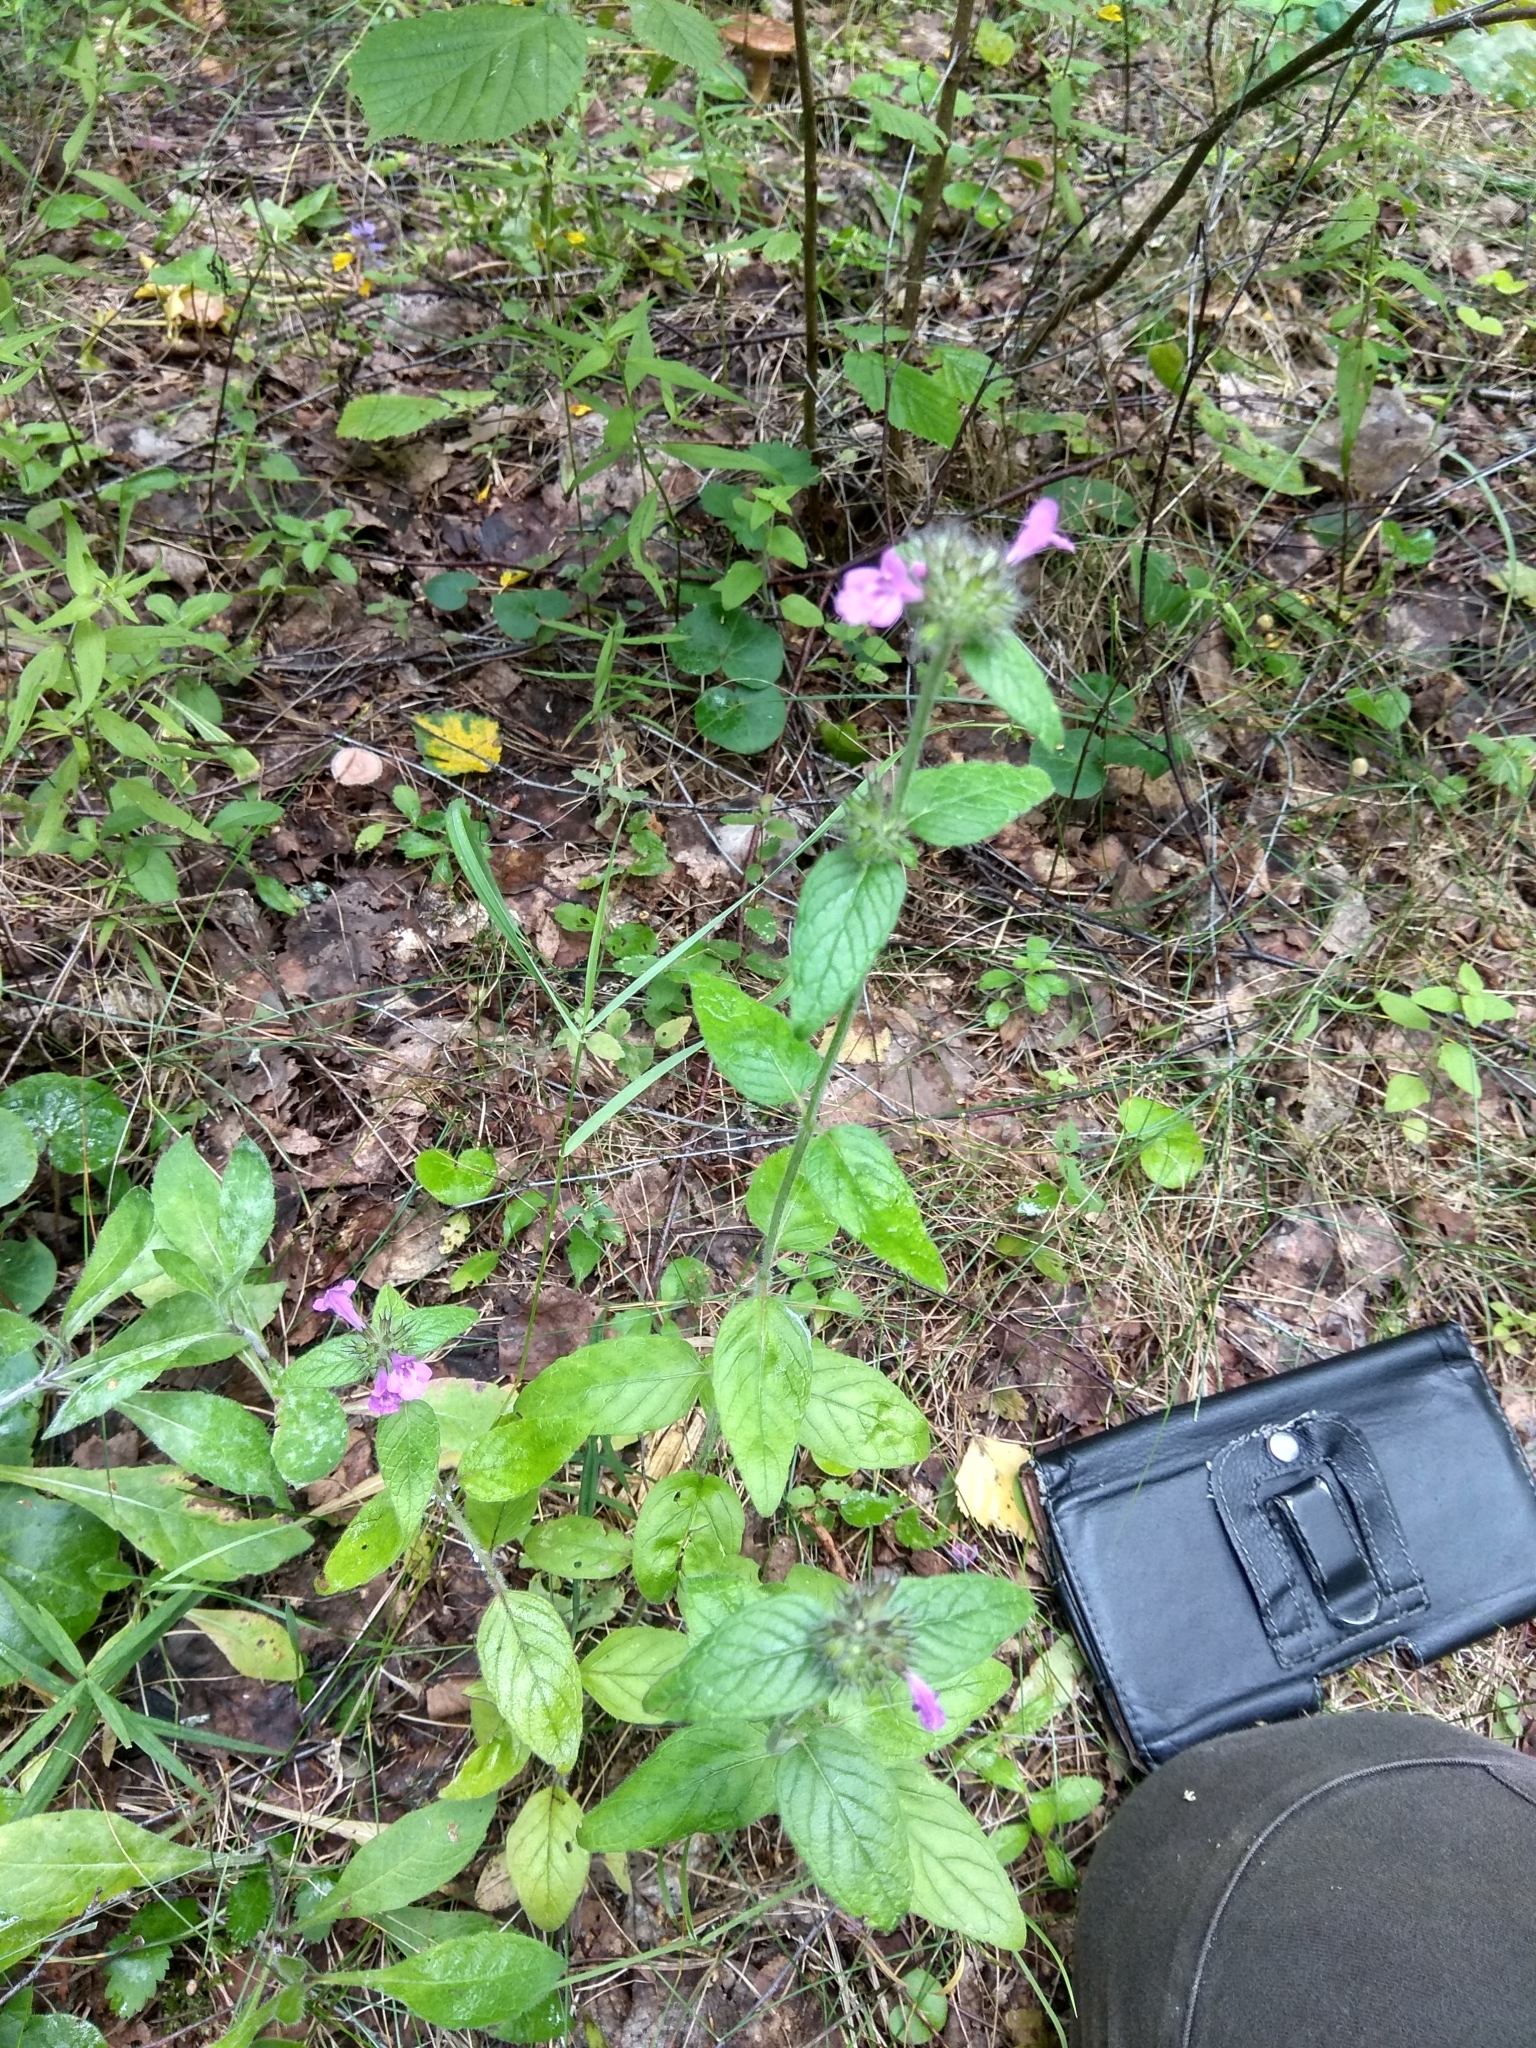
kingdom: Plantae
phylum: Tracheophyta
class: Magnoliopsida
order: Lamiales
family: Lamiaceae
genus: Clinopodium
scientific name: Clinopodium vulgare
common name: Wild basil
